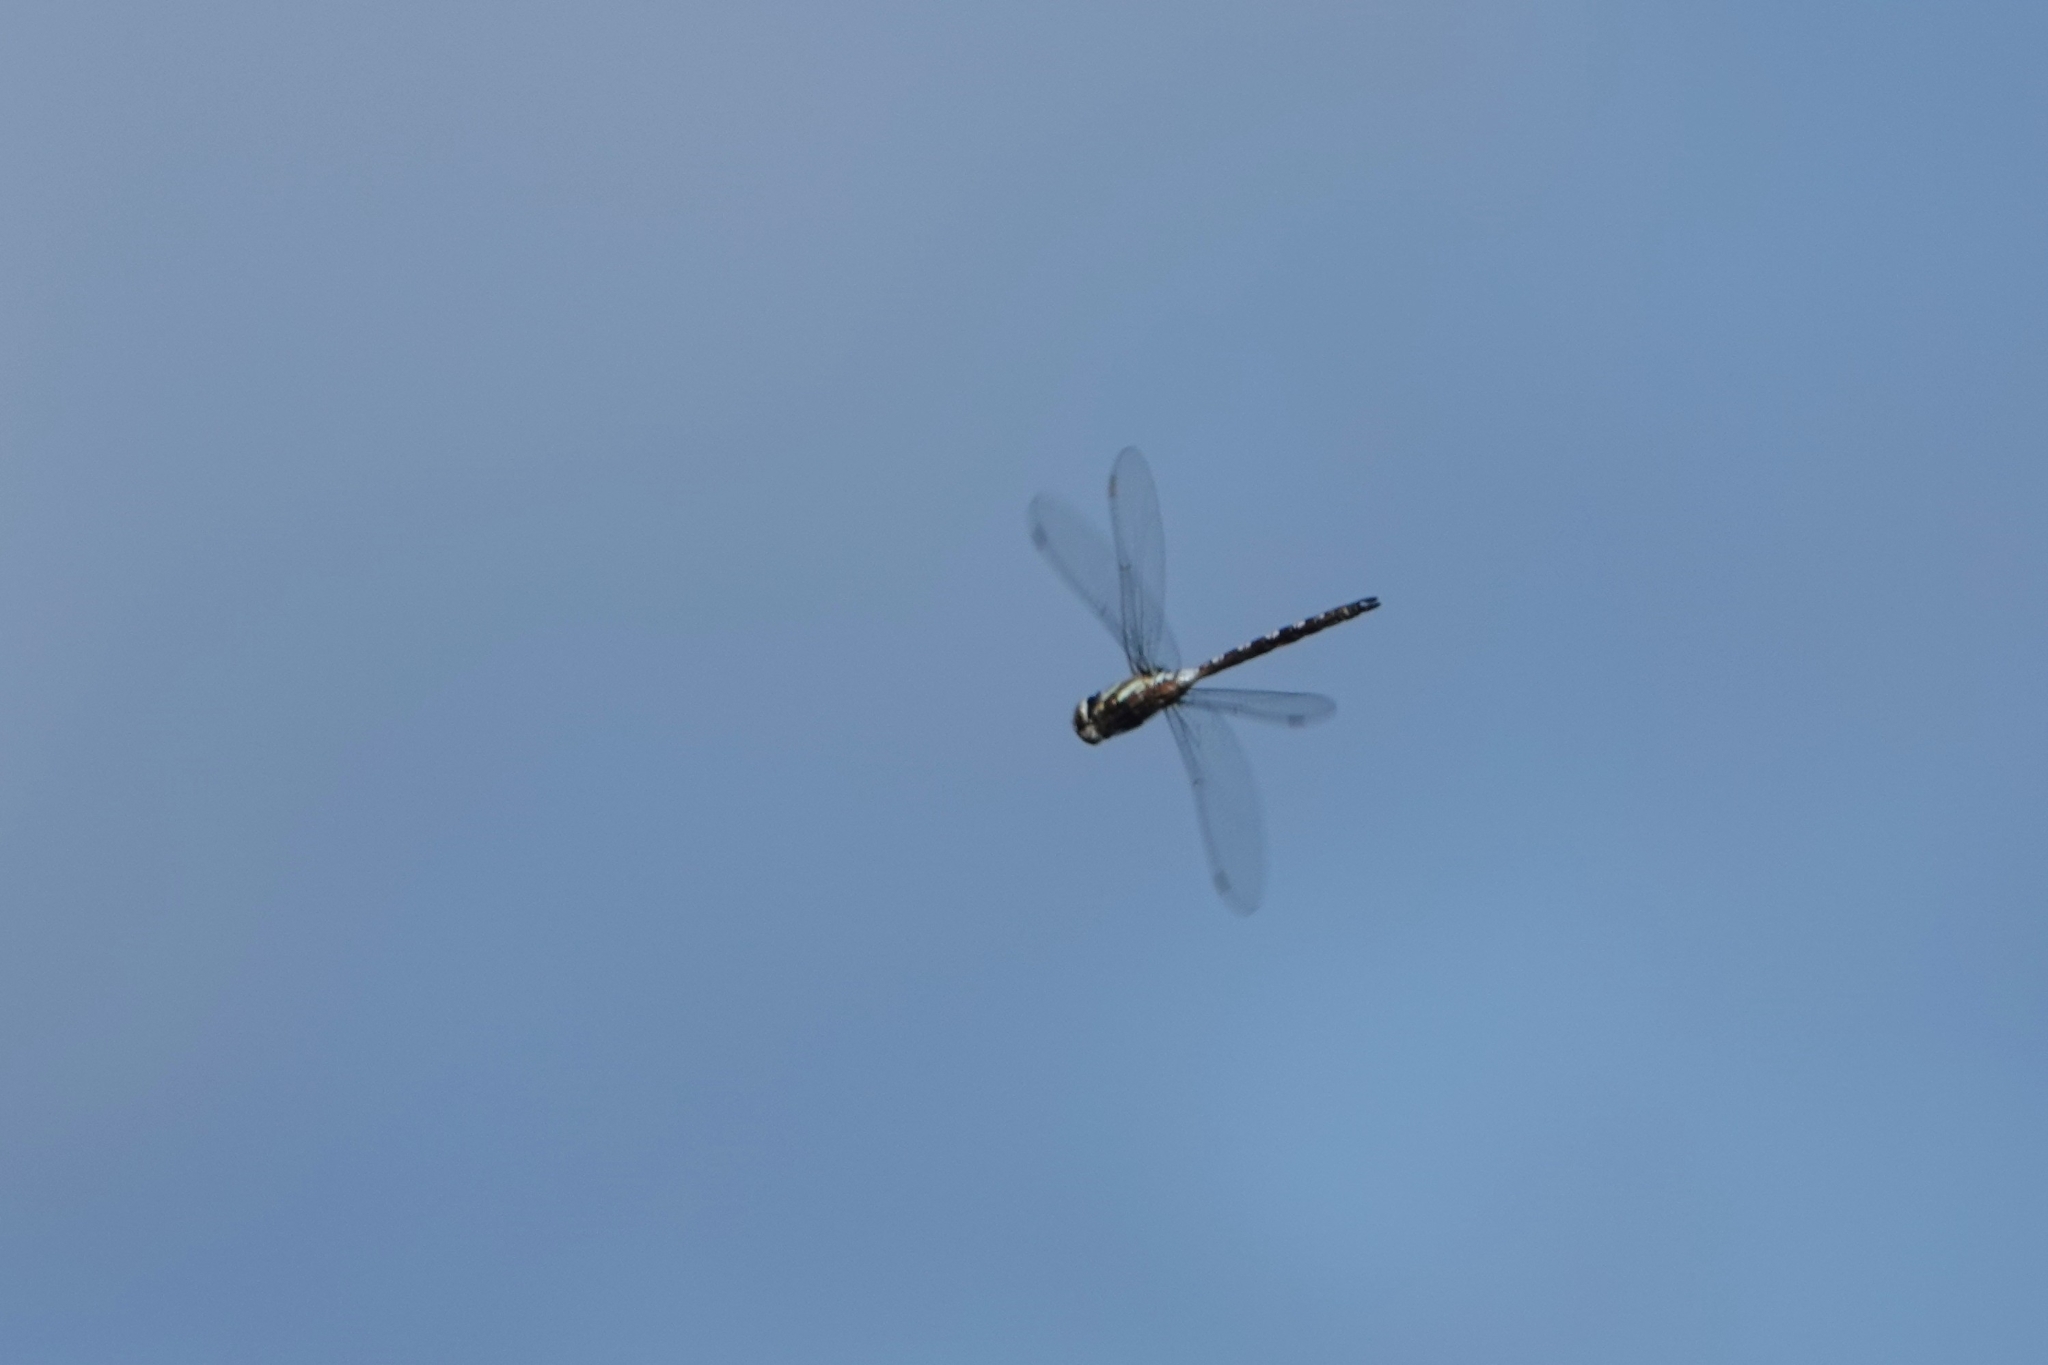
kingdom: Animalia
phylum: Arthropoda
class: Insecta
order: Odonata
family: Aeshnidae
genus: Aeshna
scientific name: Aeshna mixta
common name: Migrant hawker
